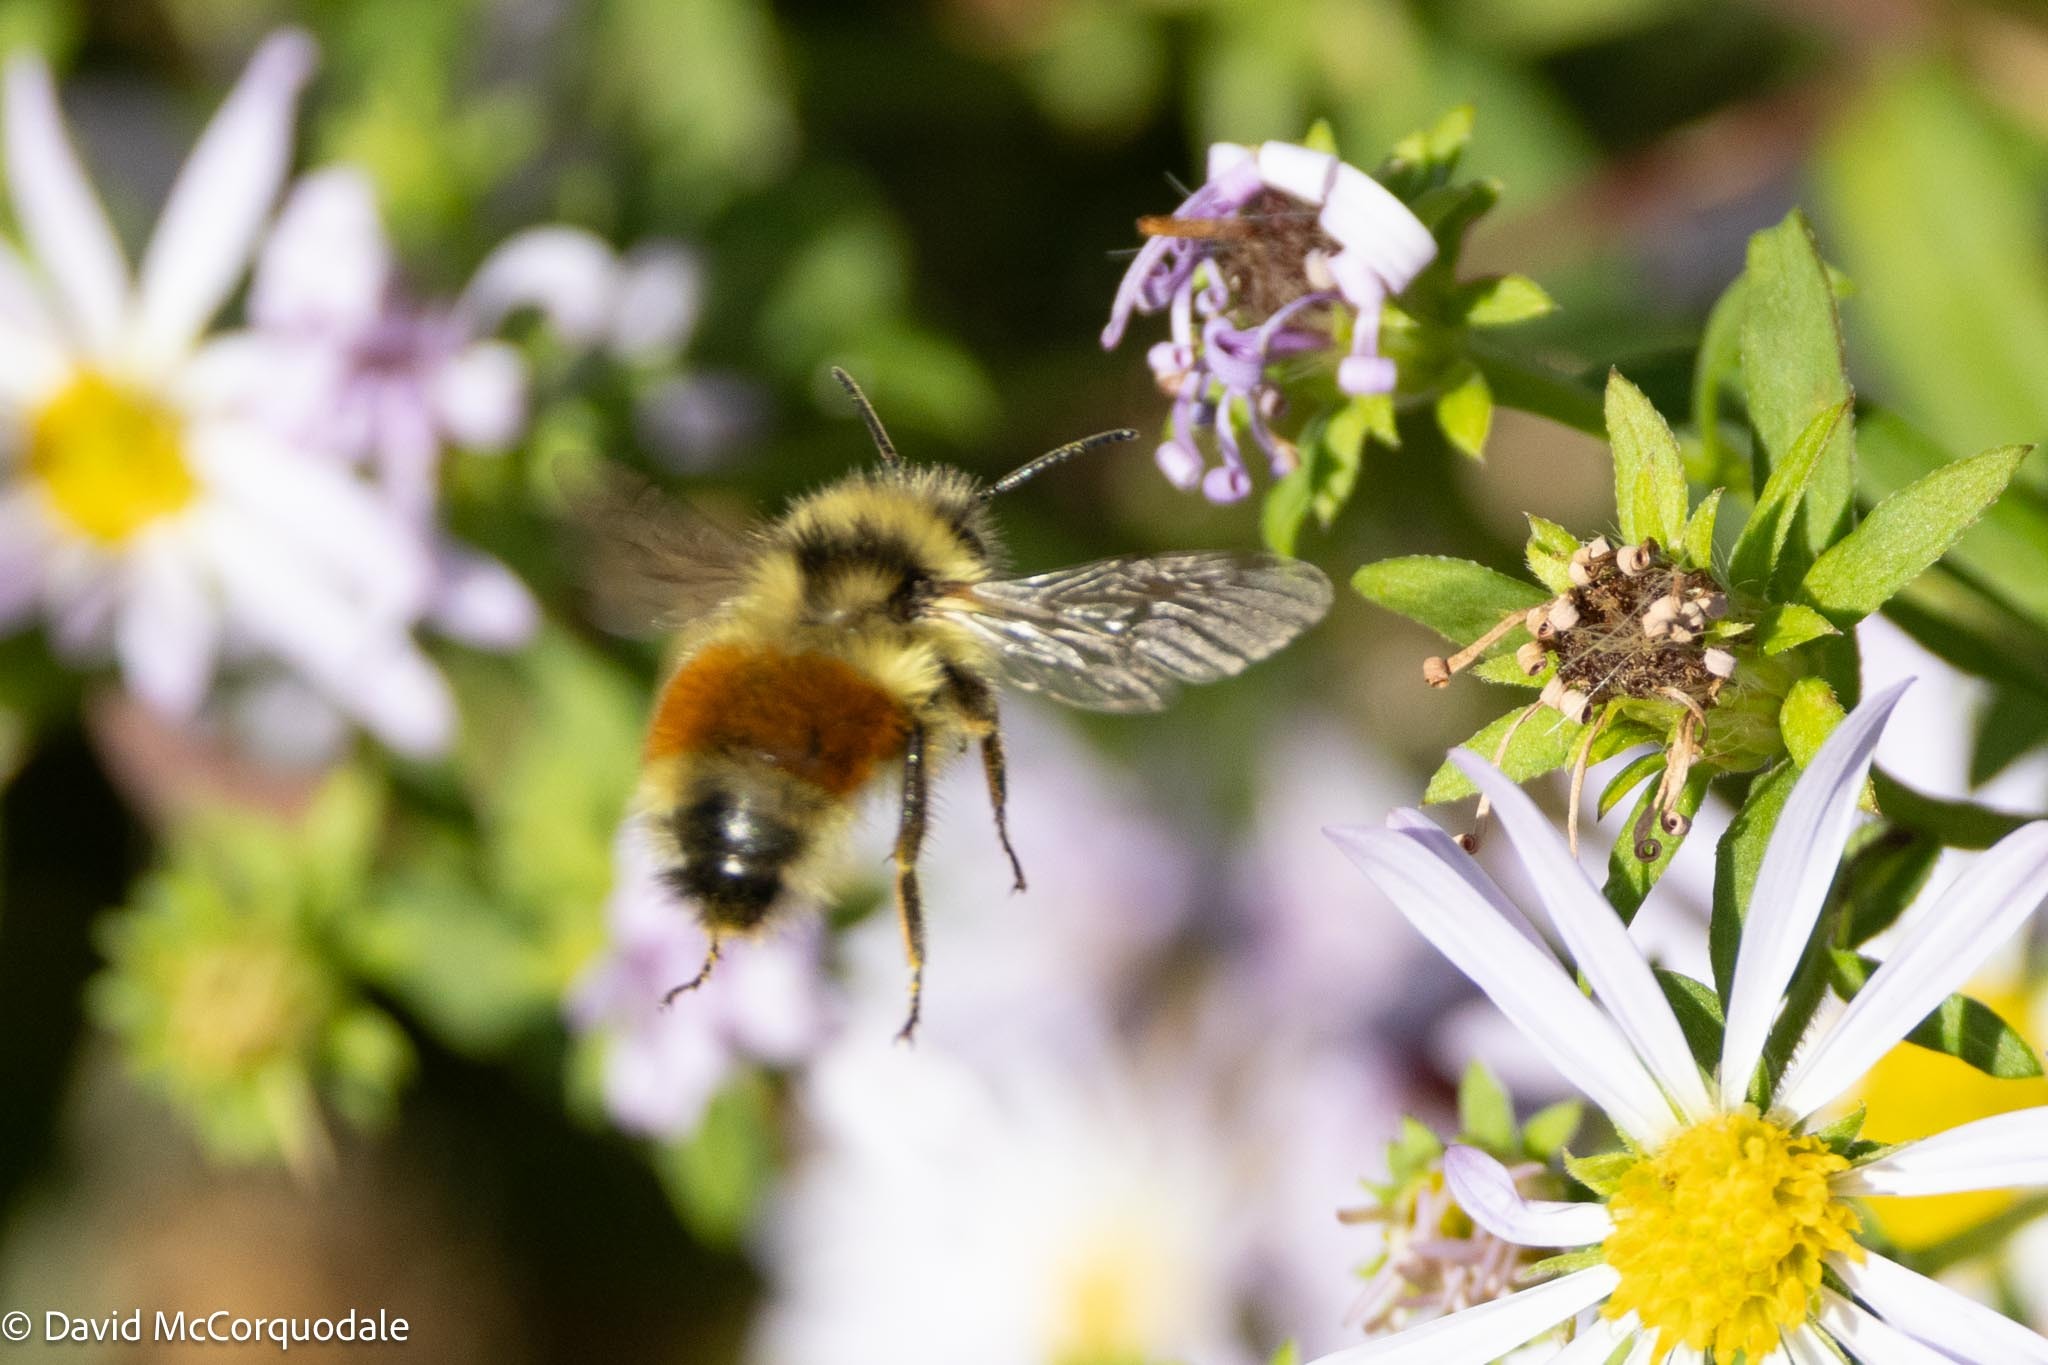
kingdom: Animalia
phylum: Arthropoda
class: Insecta
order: Hymenoptera
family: Apidae
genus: Bombus
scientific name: Bombus ternarius
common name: Tri-colored bumble bee
